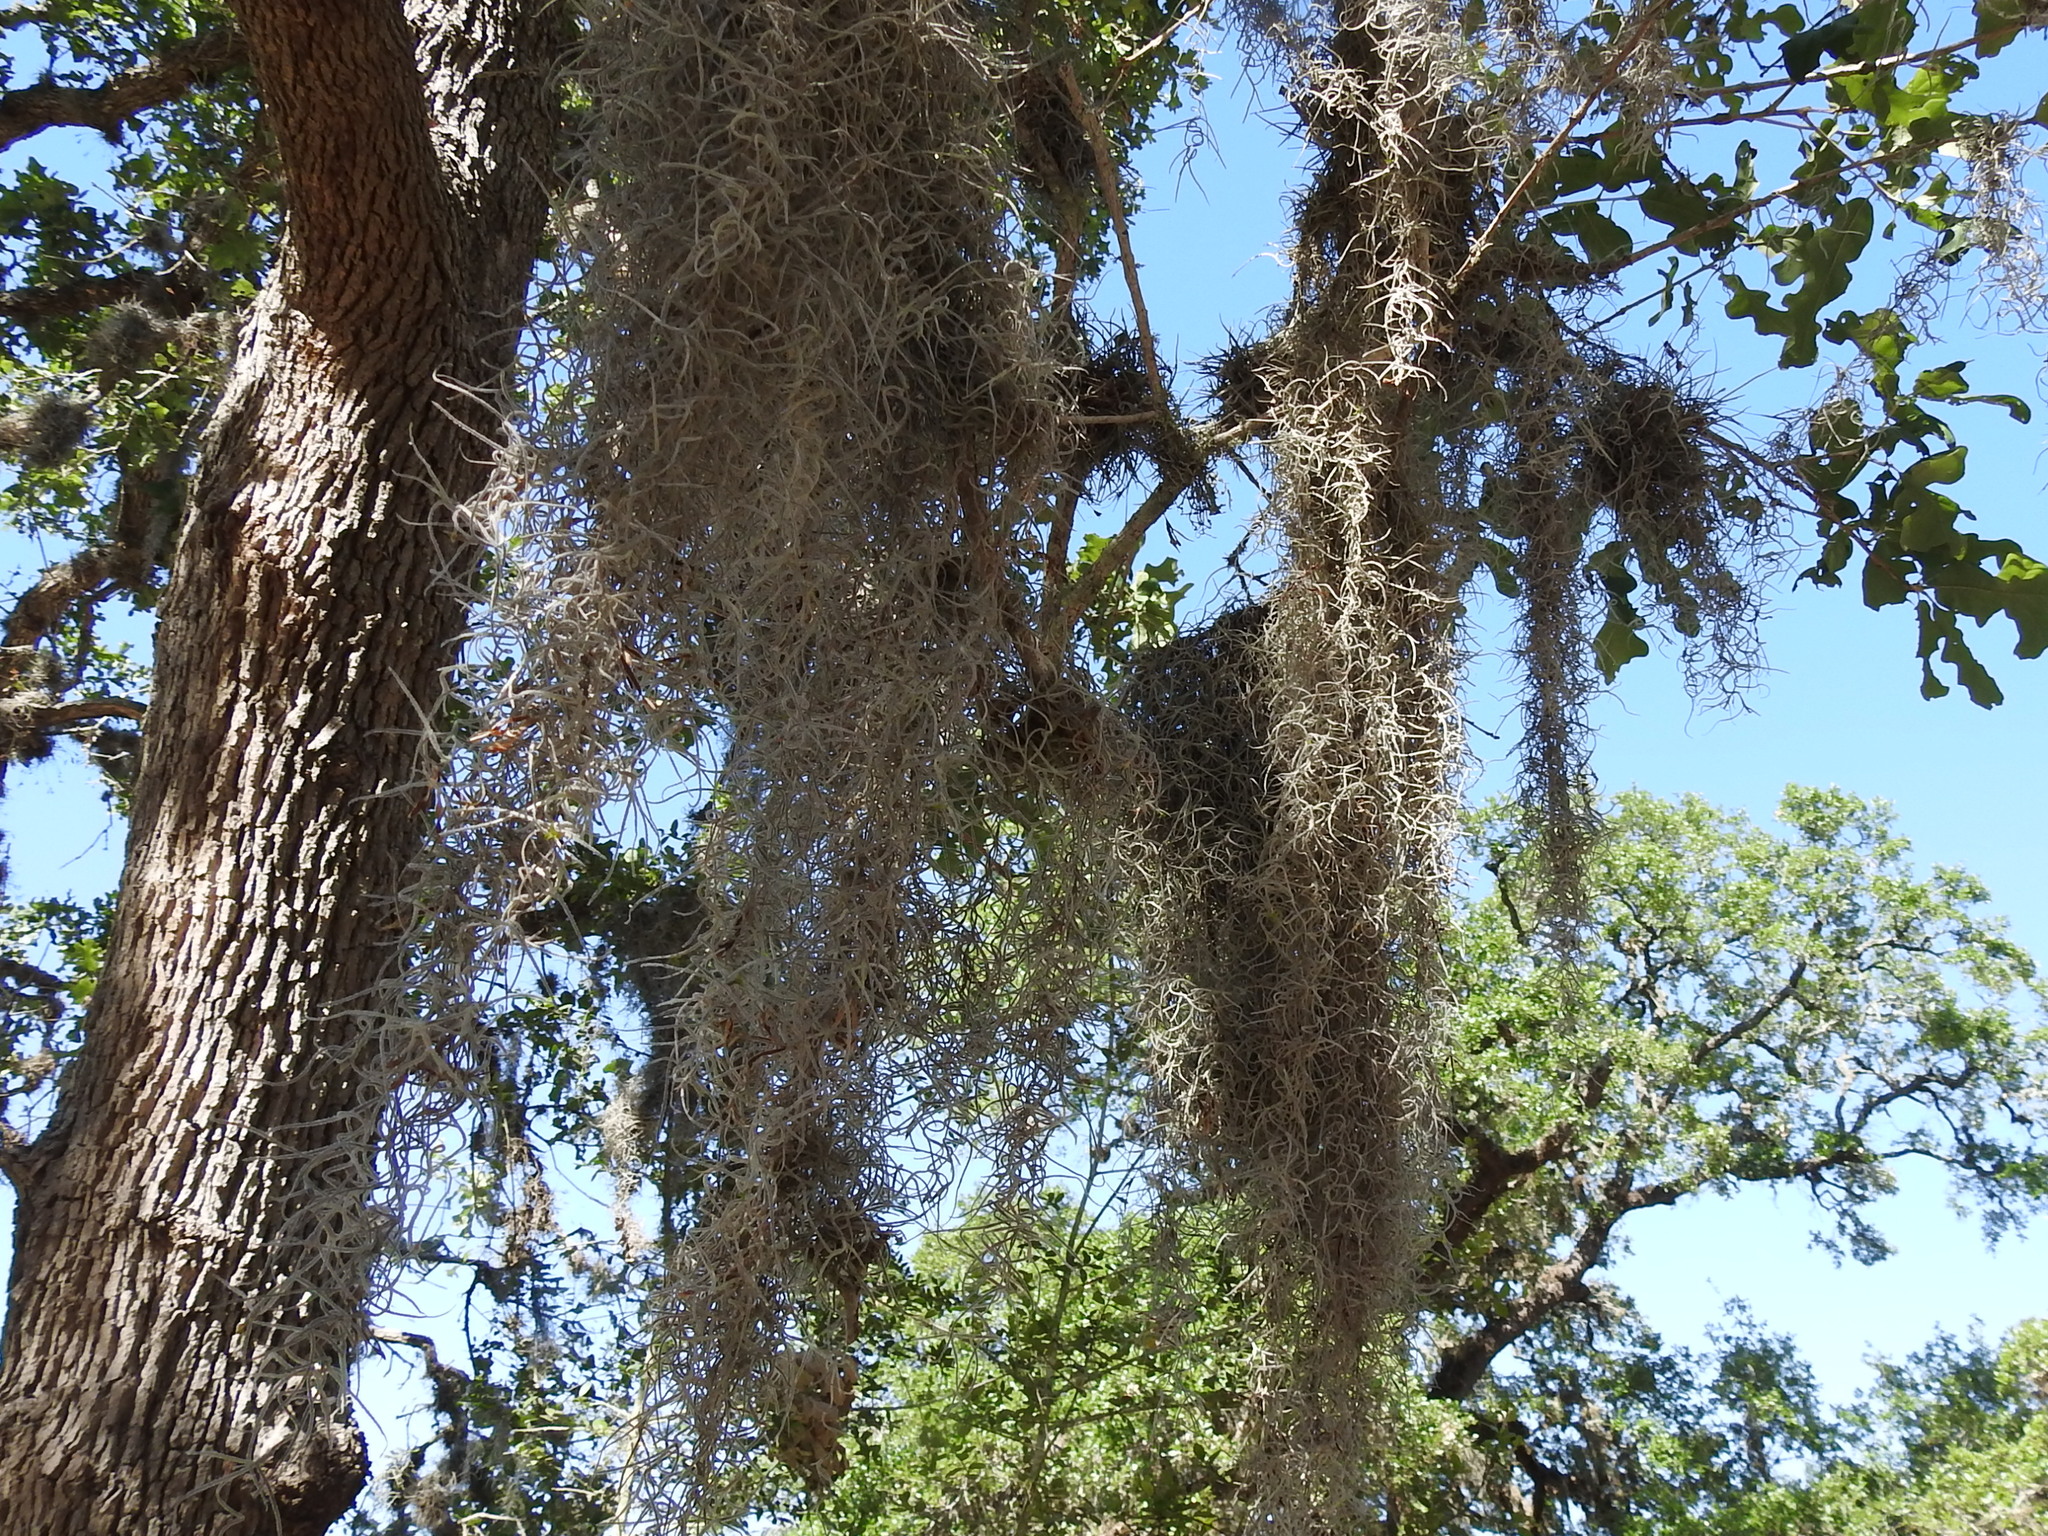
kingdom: Plantae
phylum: Tracheophyta
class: Liliopsida
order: Poales
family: Bromeliaceae
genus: Tillandsia
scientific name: Tillandsia usneoides
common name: Spanish moss
